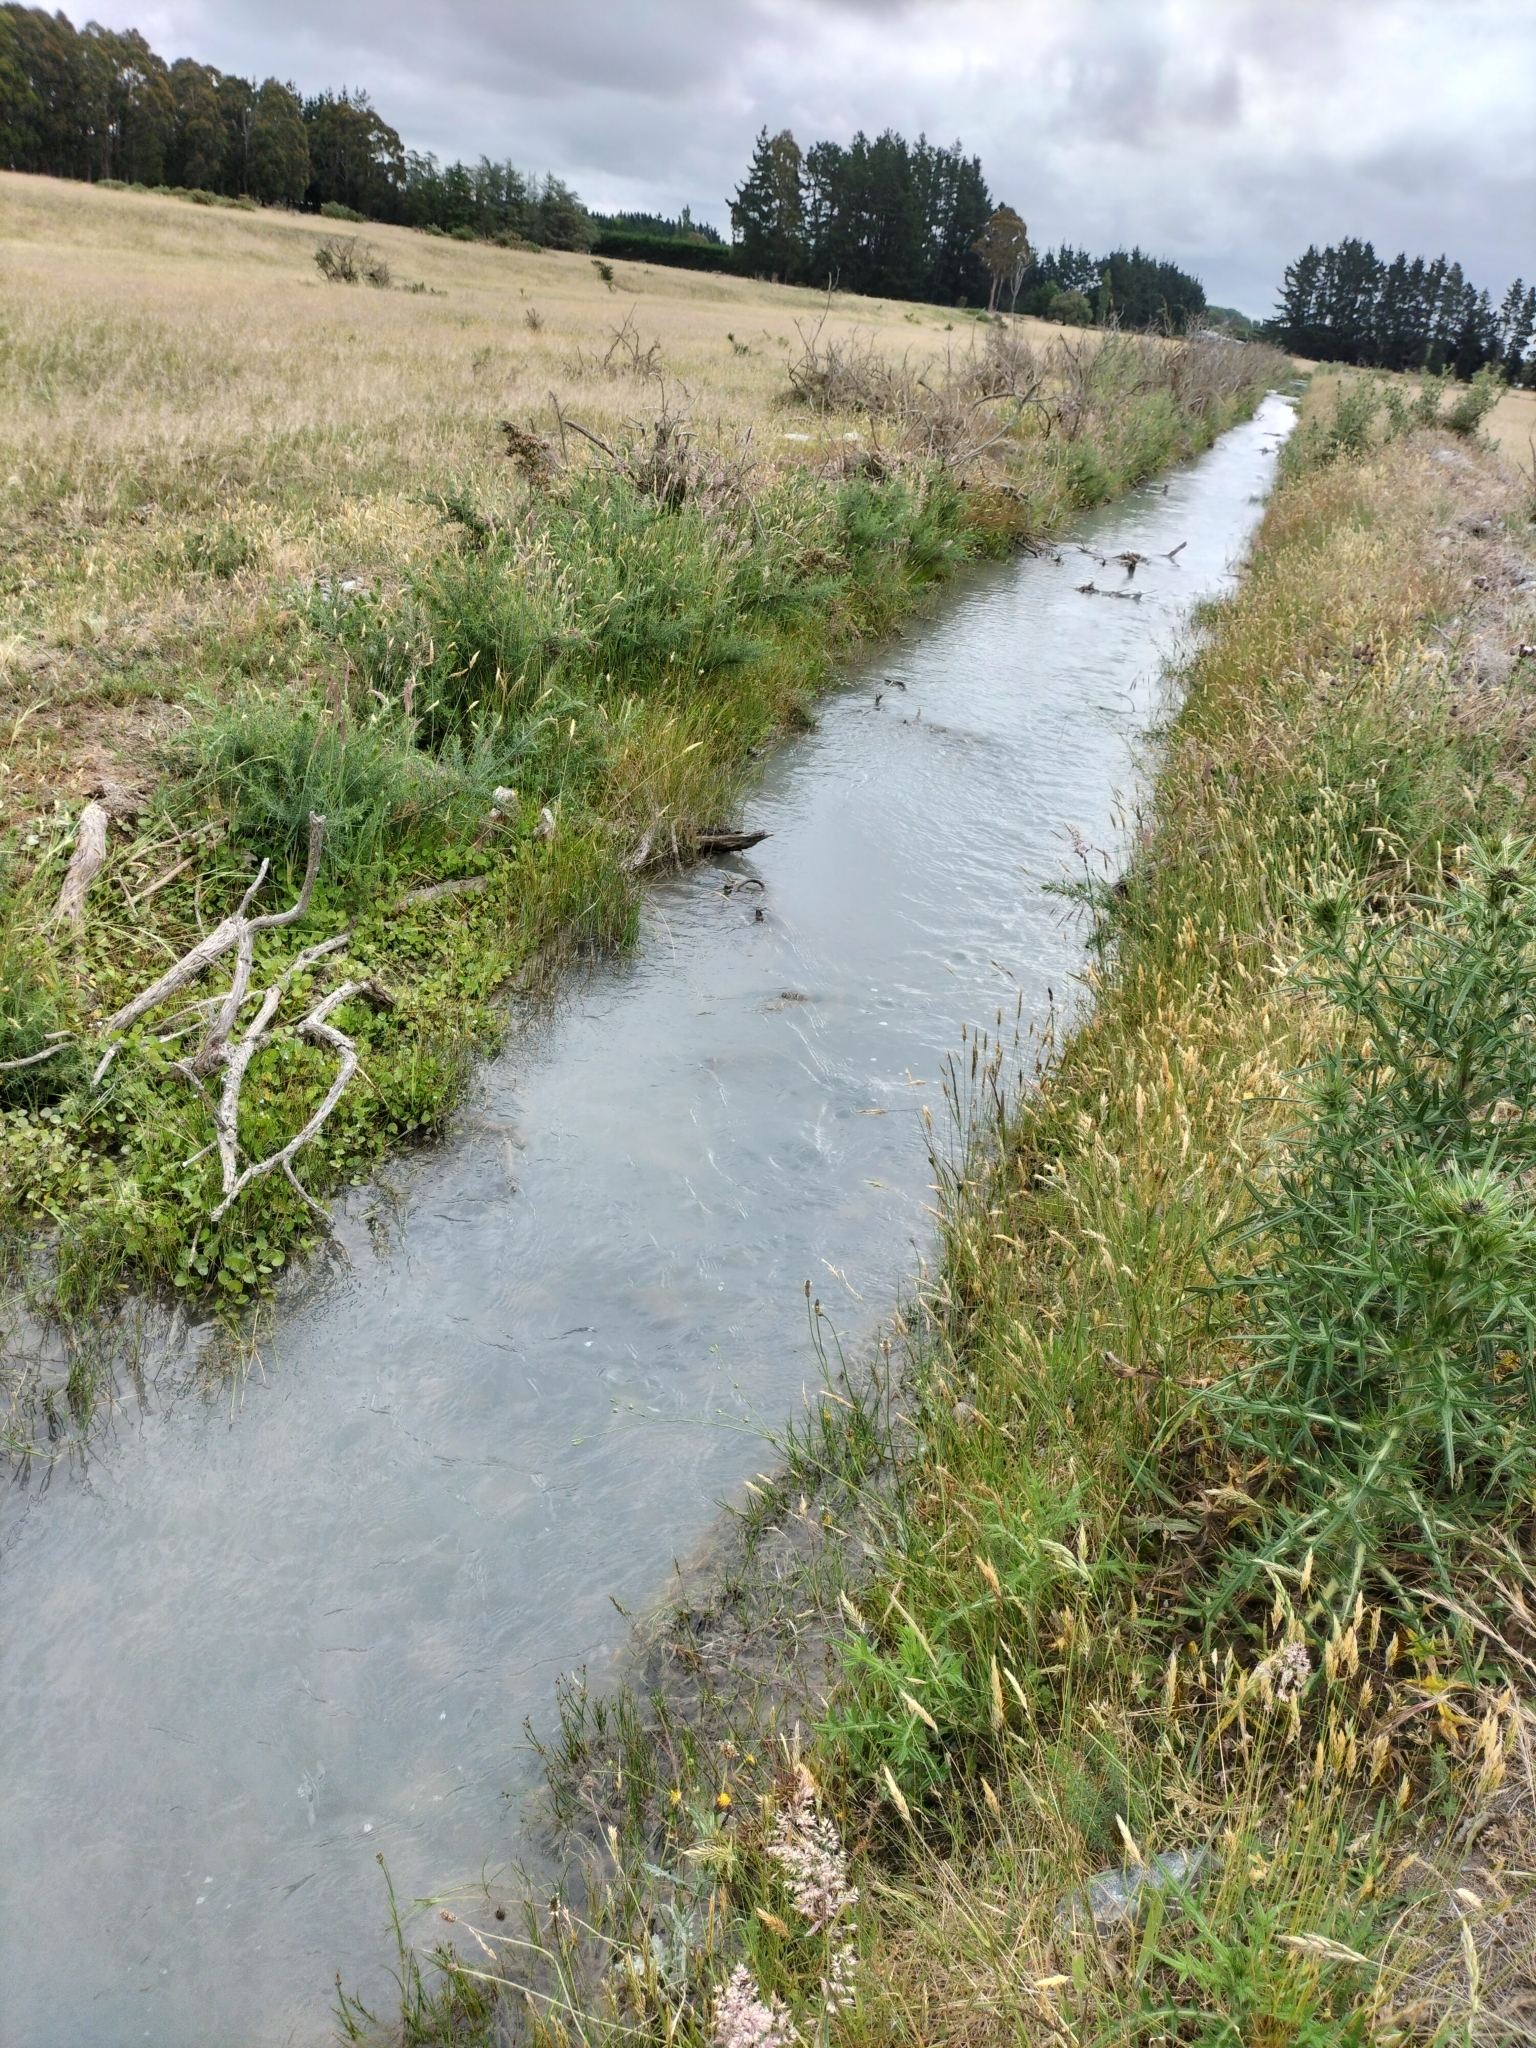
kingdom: Plantae
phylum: Tracheophyta
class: Magnoliopsida
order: Apiales
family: Apiaceae
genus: Centella
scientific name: Centella uniflora
